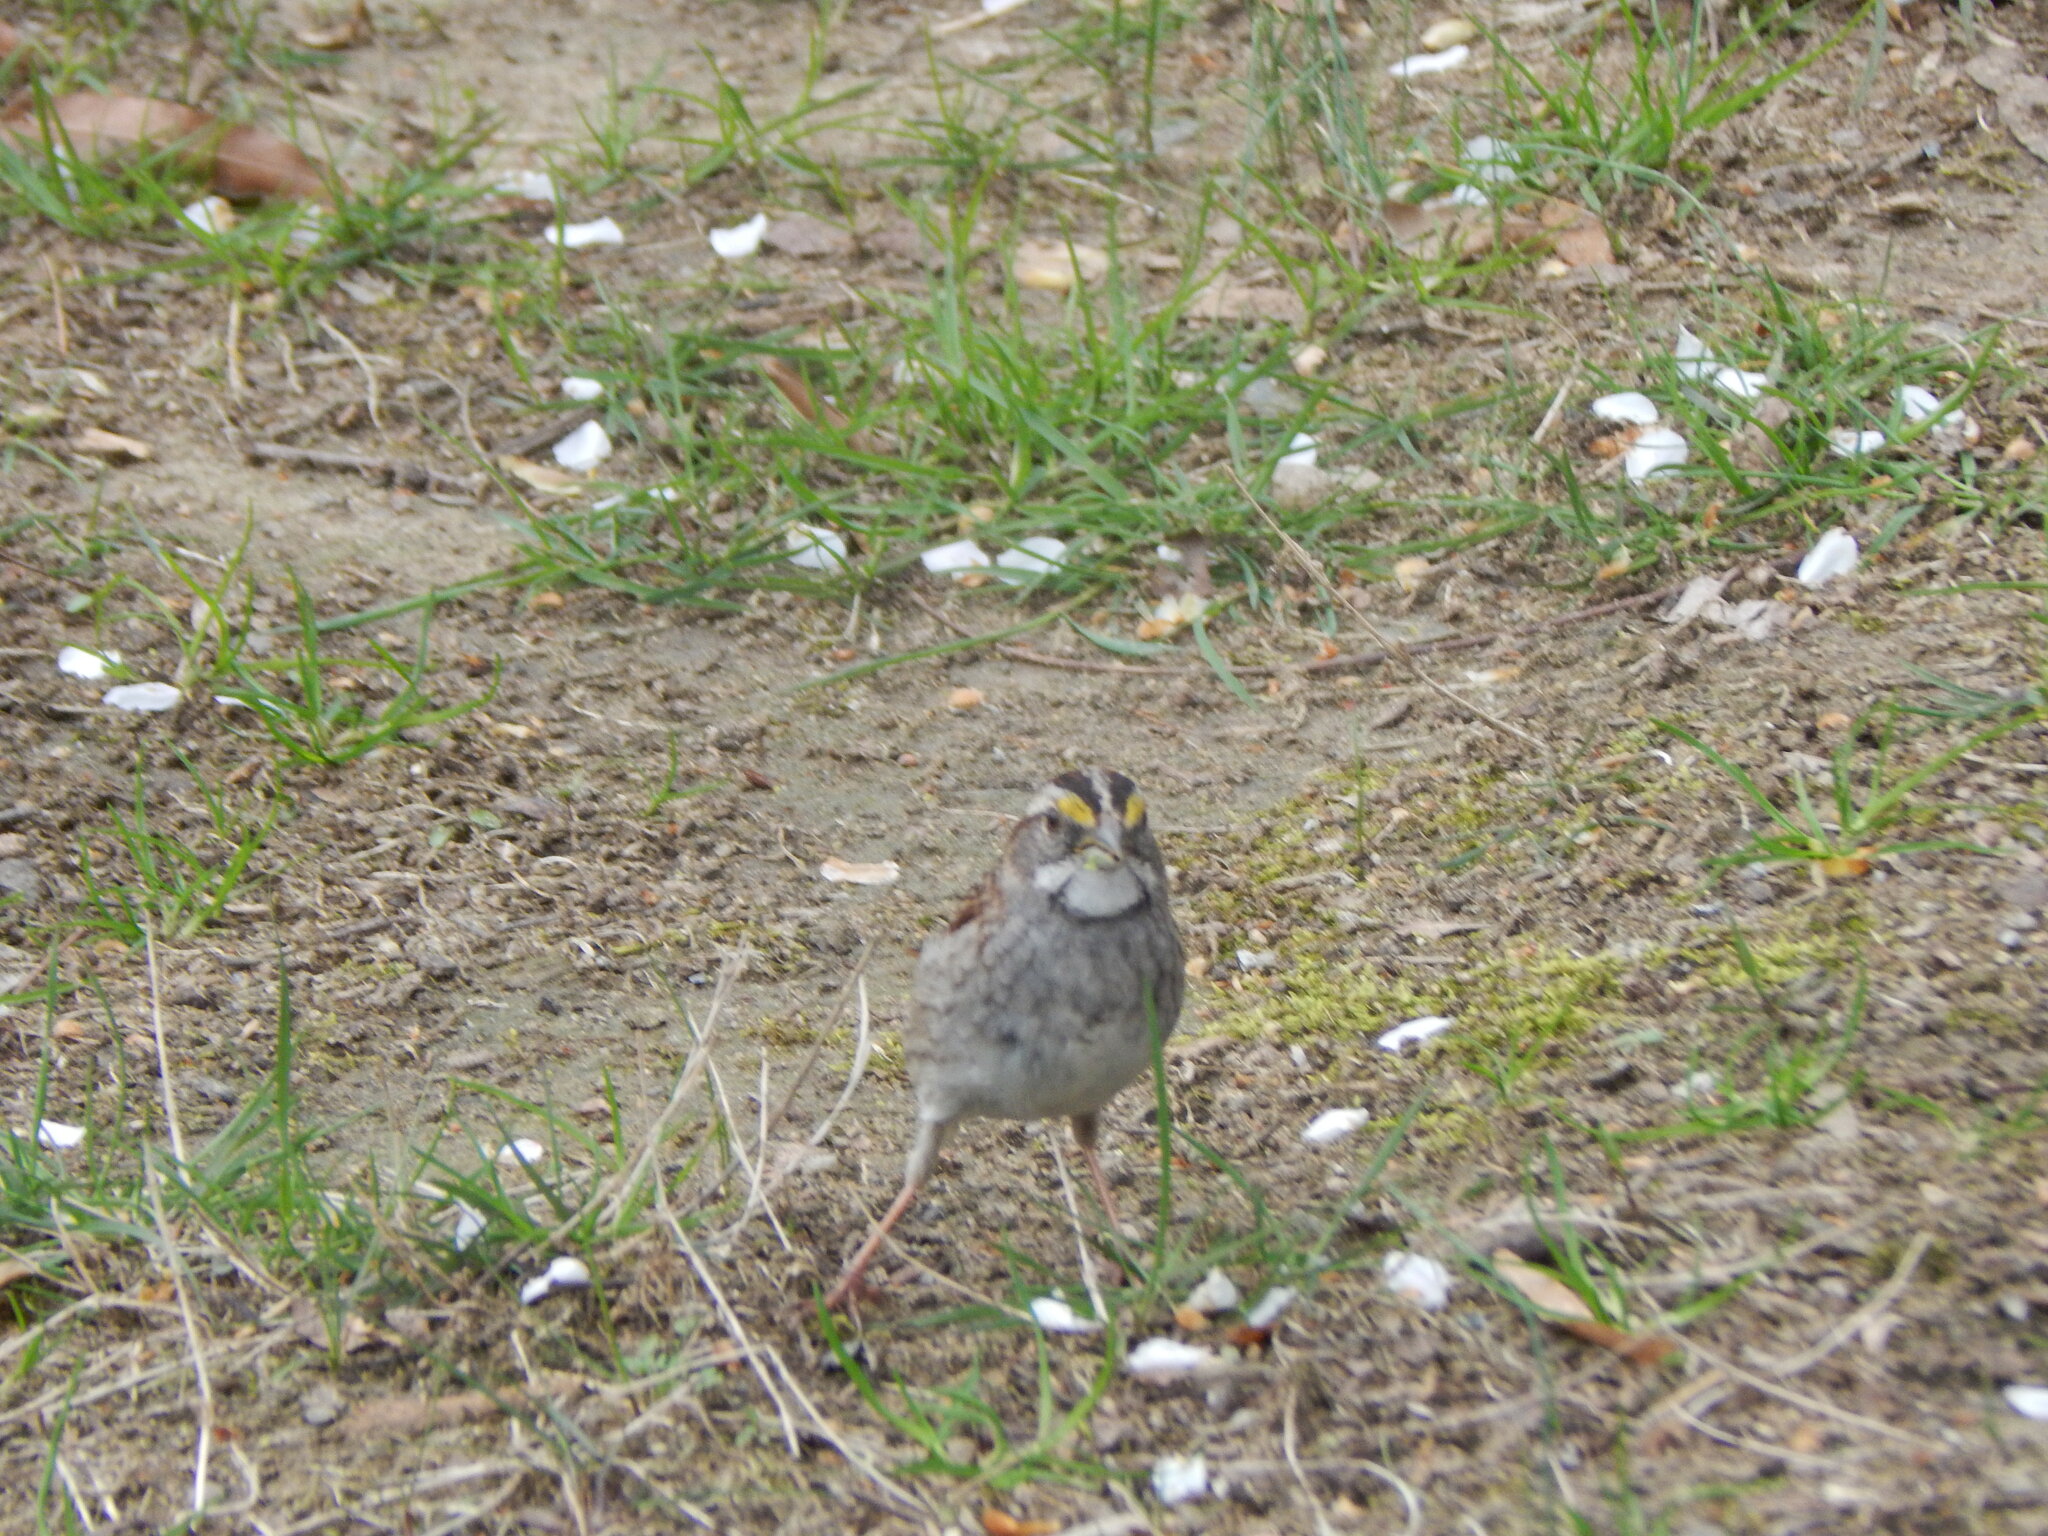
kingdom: Animalia
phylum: Chordata
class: Aves
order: Passeriformes
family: Passerellidae
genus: Zonotrichia
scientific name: Zonotrichia albicollis
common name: White-throated sparrow
